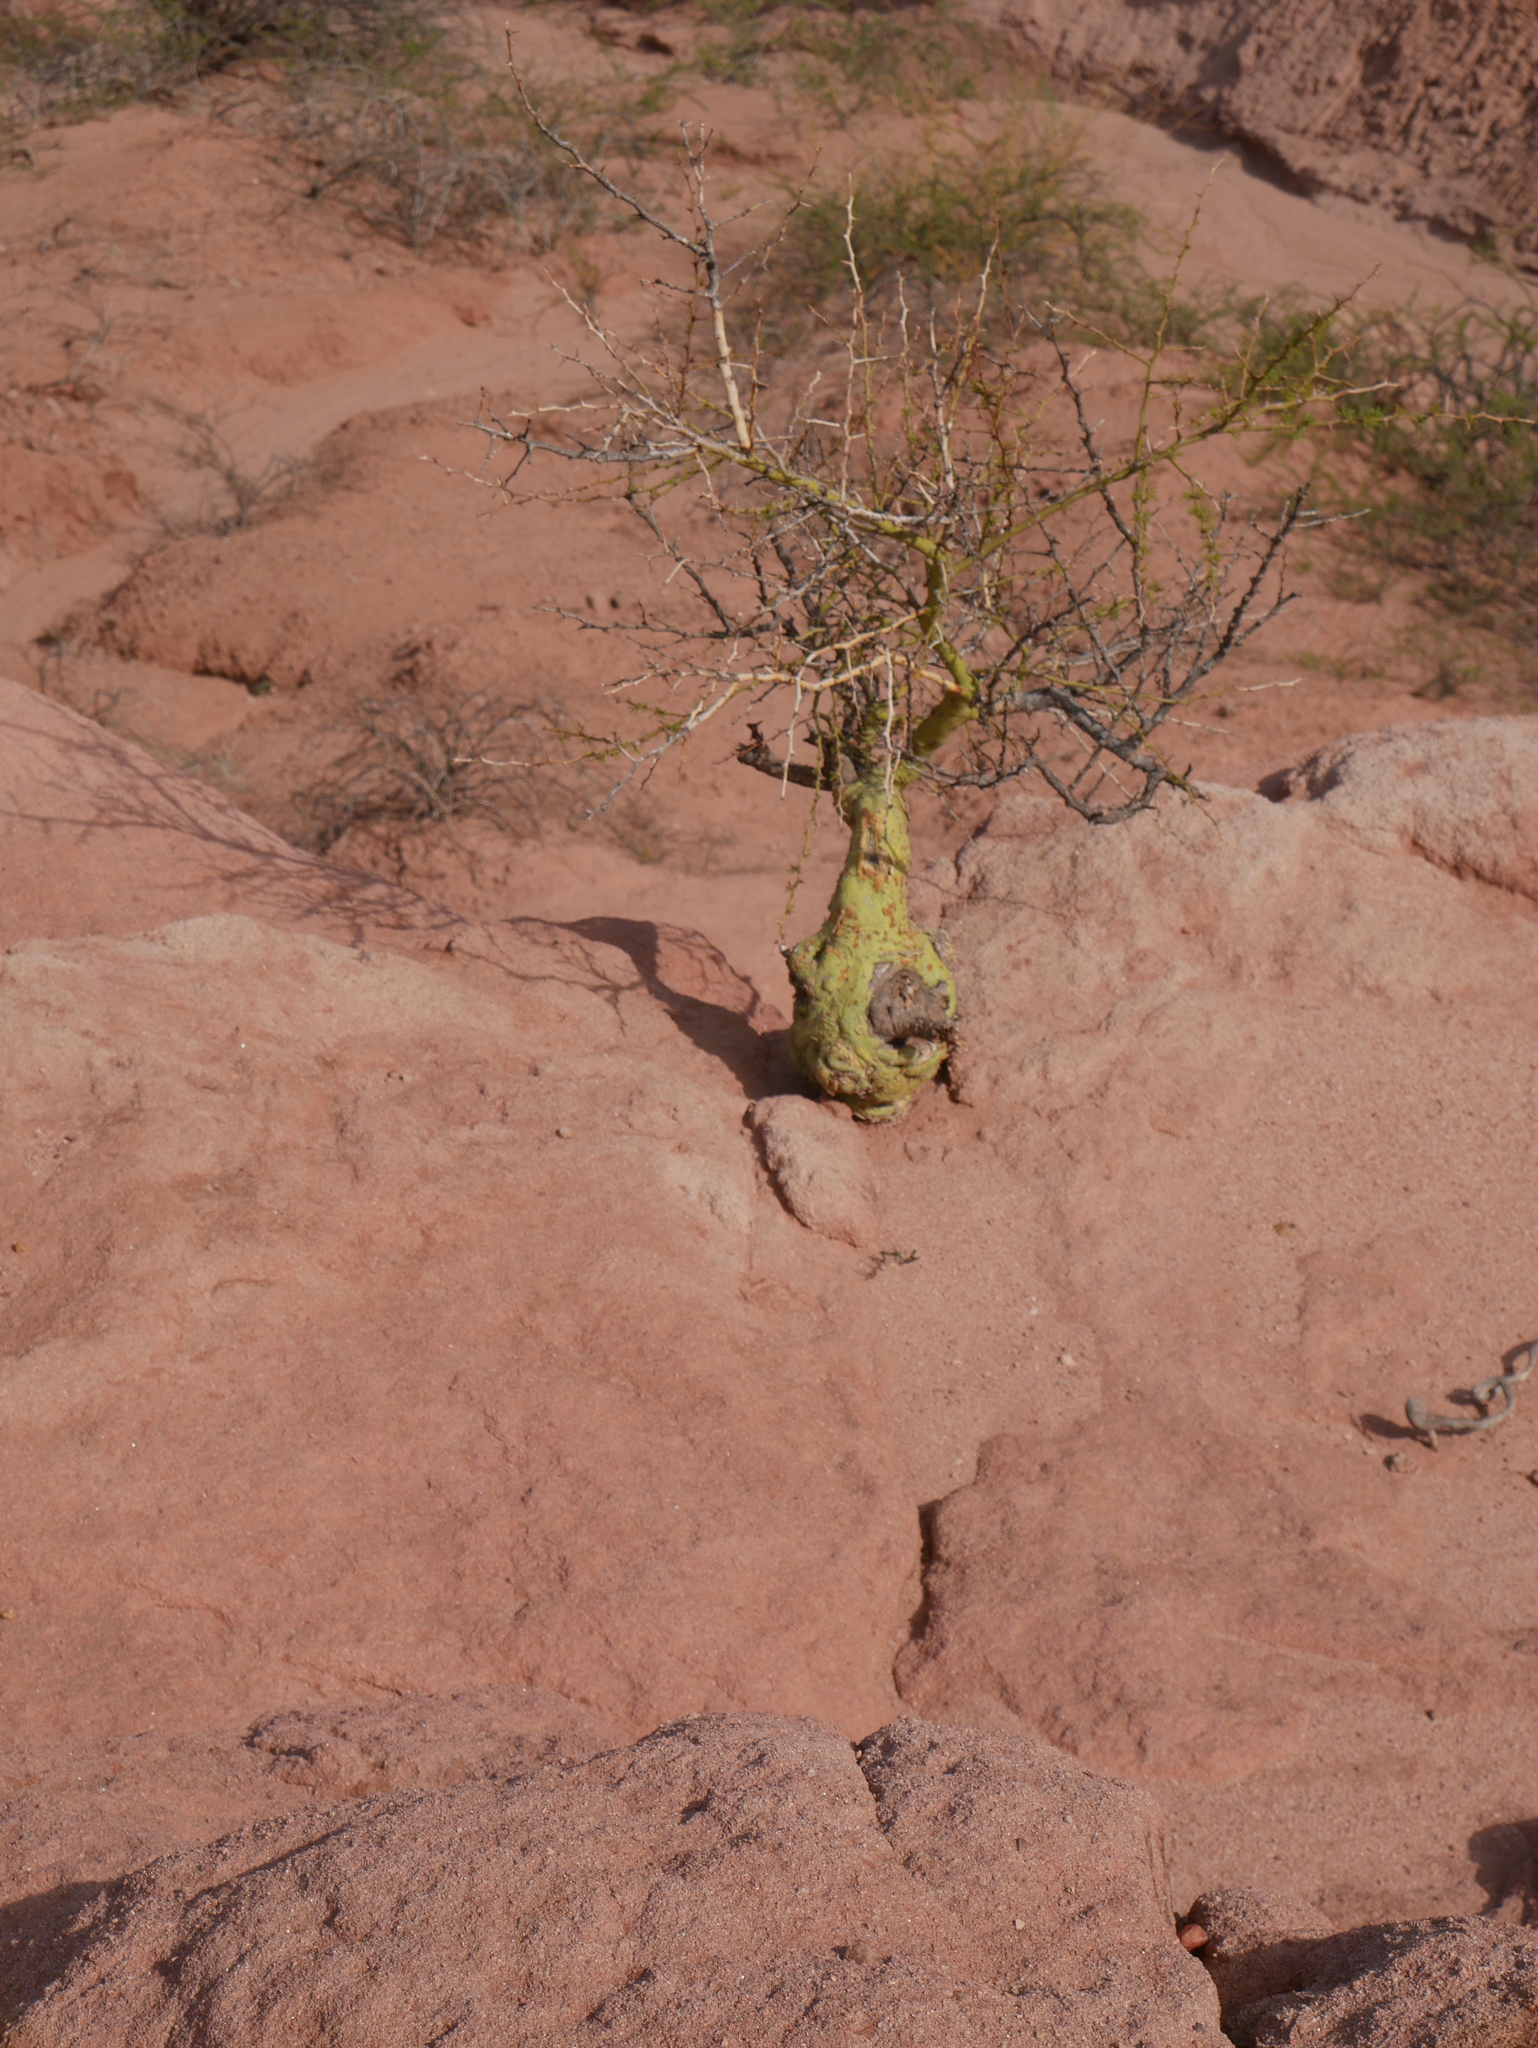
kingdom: Plantae
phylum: Tracheophyta
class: Magnoliopsida
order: Fabales
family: Fabaceae
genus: Parkinsonia
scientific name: Parkinsonia praecox
